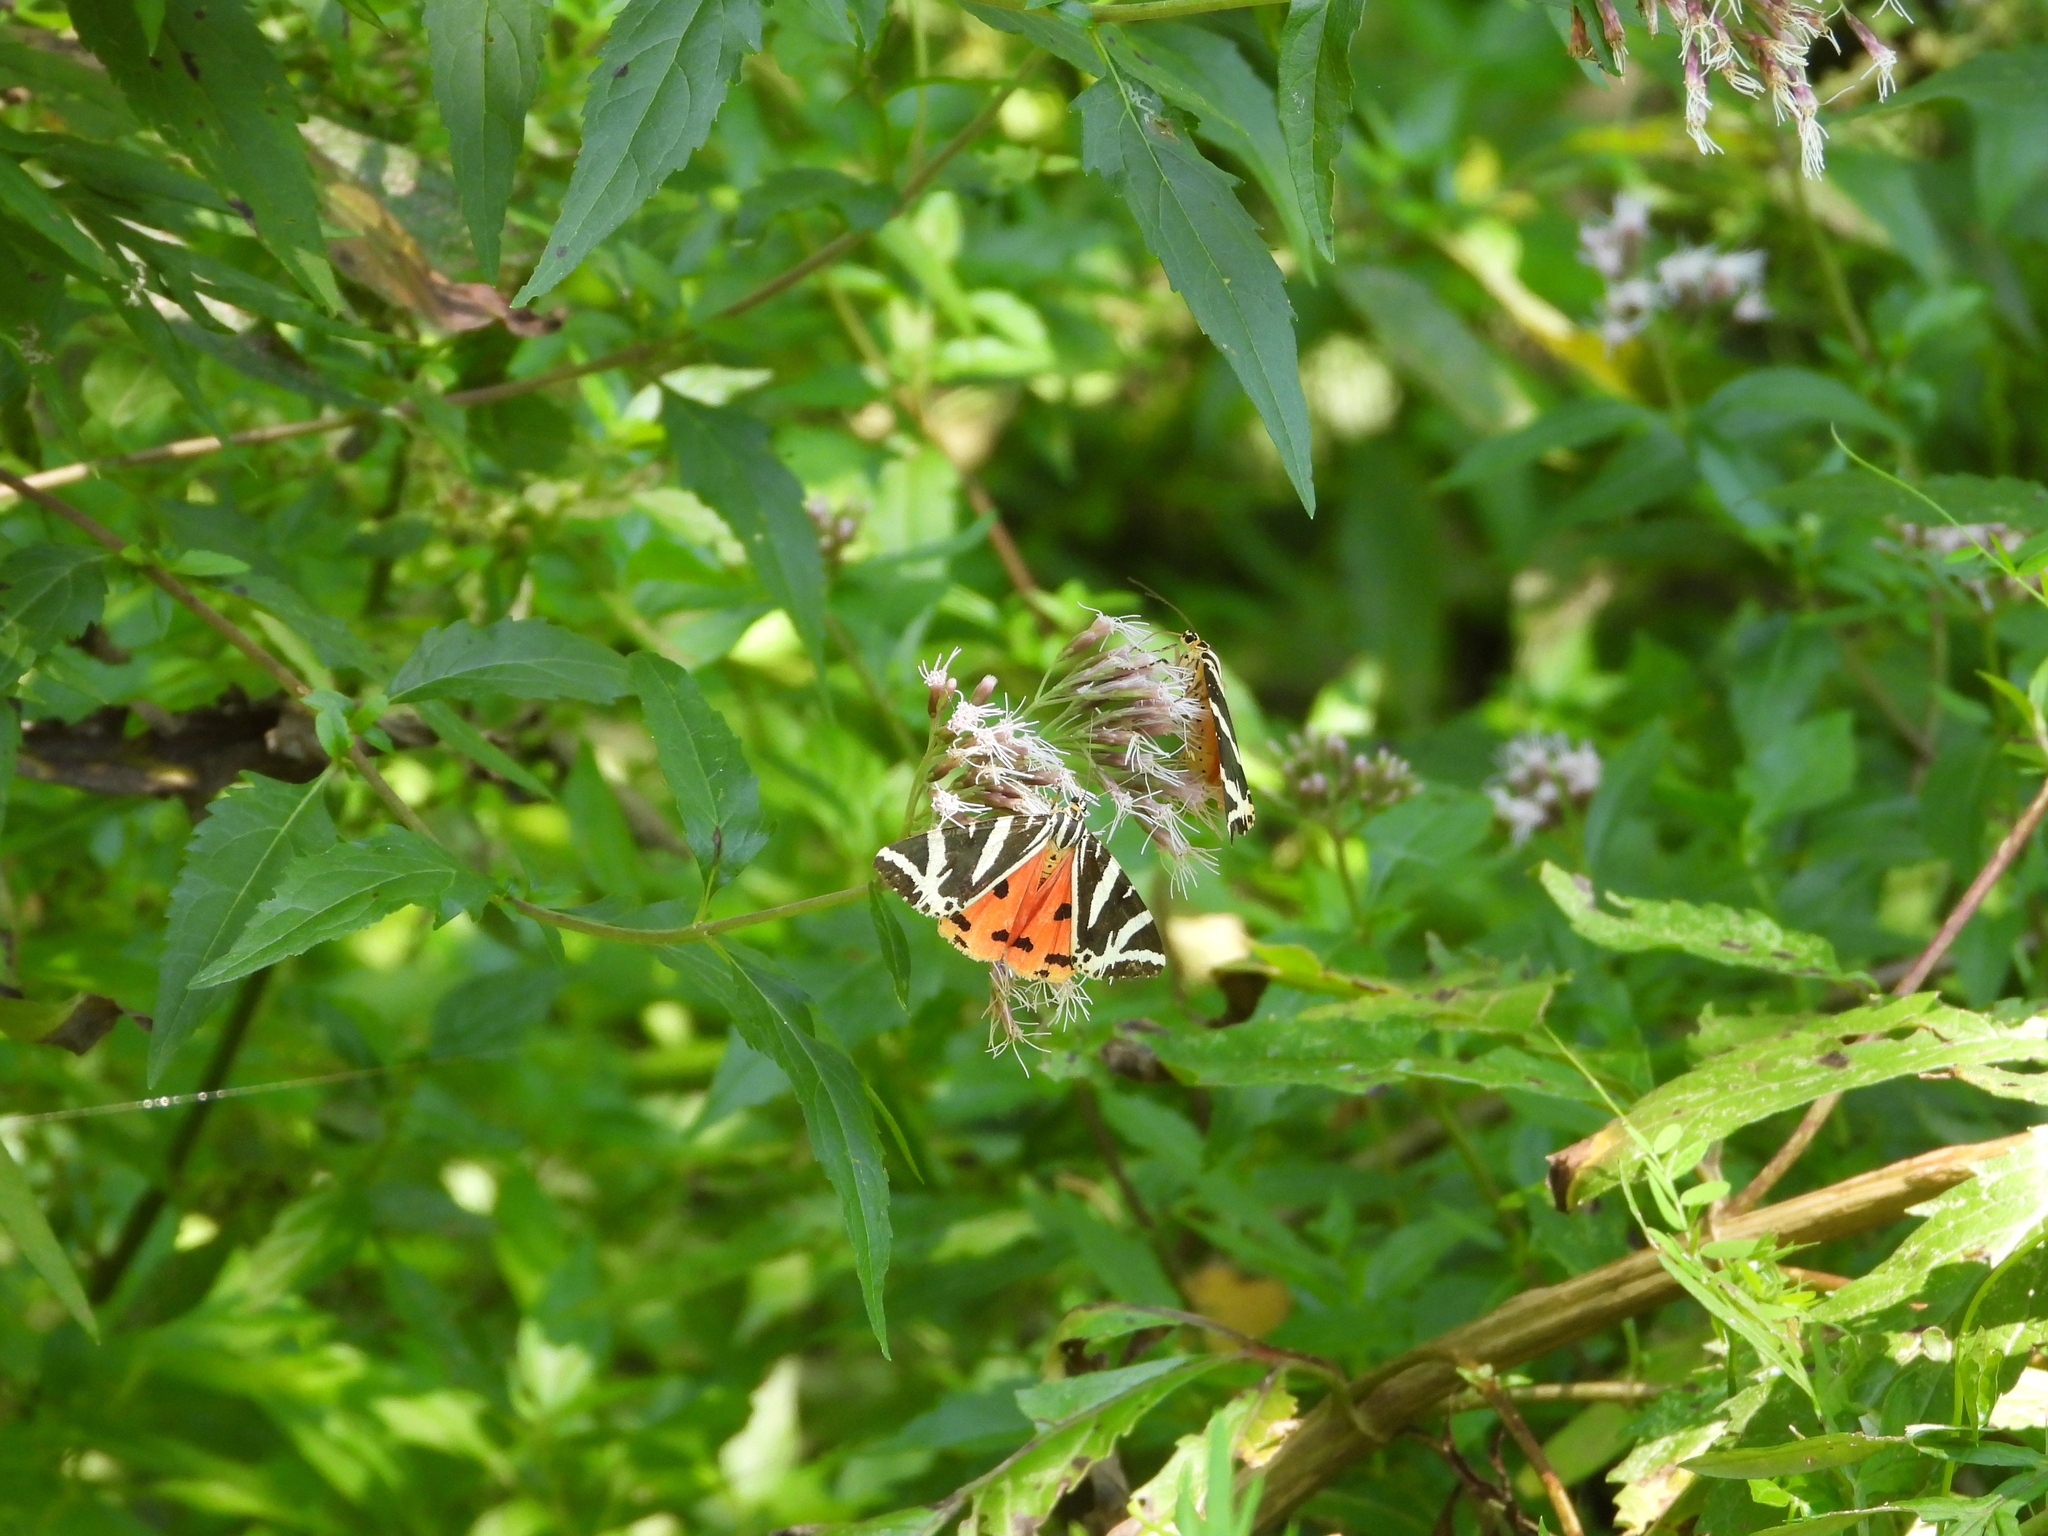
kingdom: Animalia
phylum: Arthropoda
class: Insecta
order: Lepidoptera
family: Erebidae
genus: Euplagia
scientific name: Euplagia quadripunctaria
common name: Jersey tiger
